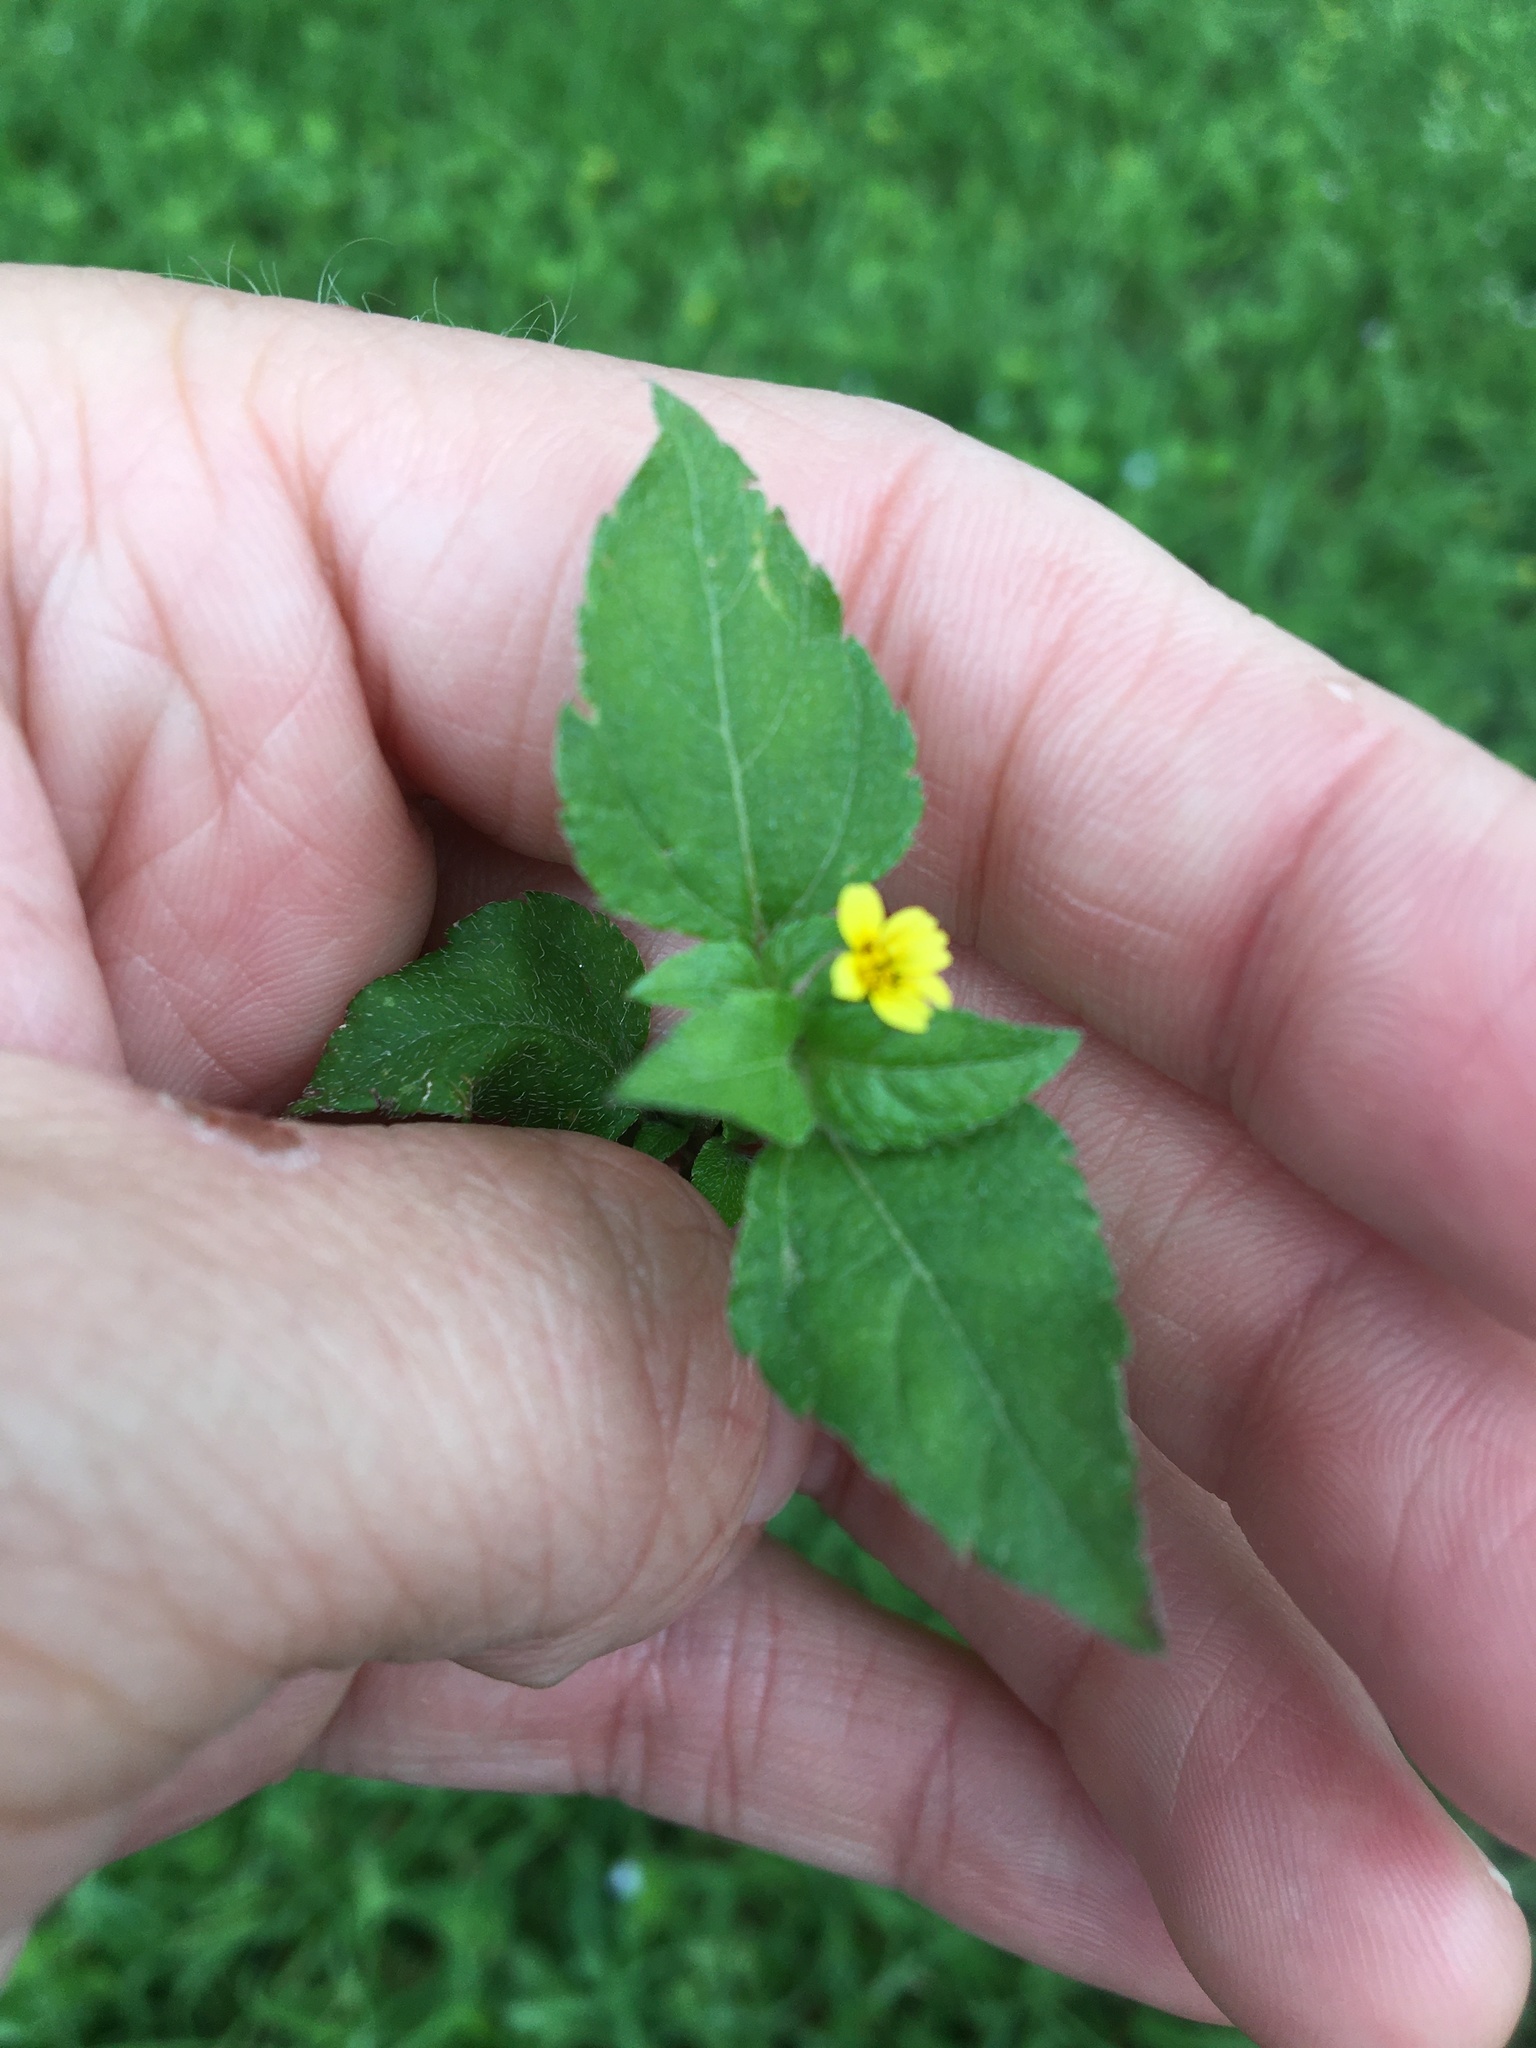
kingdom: Plantae
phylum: Tracheophyta
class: Magnoliopsida
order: Asterales
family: Asteraceae
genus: Calyptocarpus
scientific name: Calyptocarpus vialis
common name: Straggler daisy
